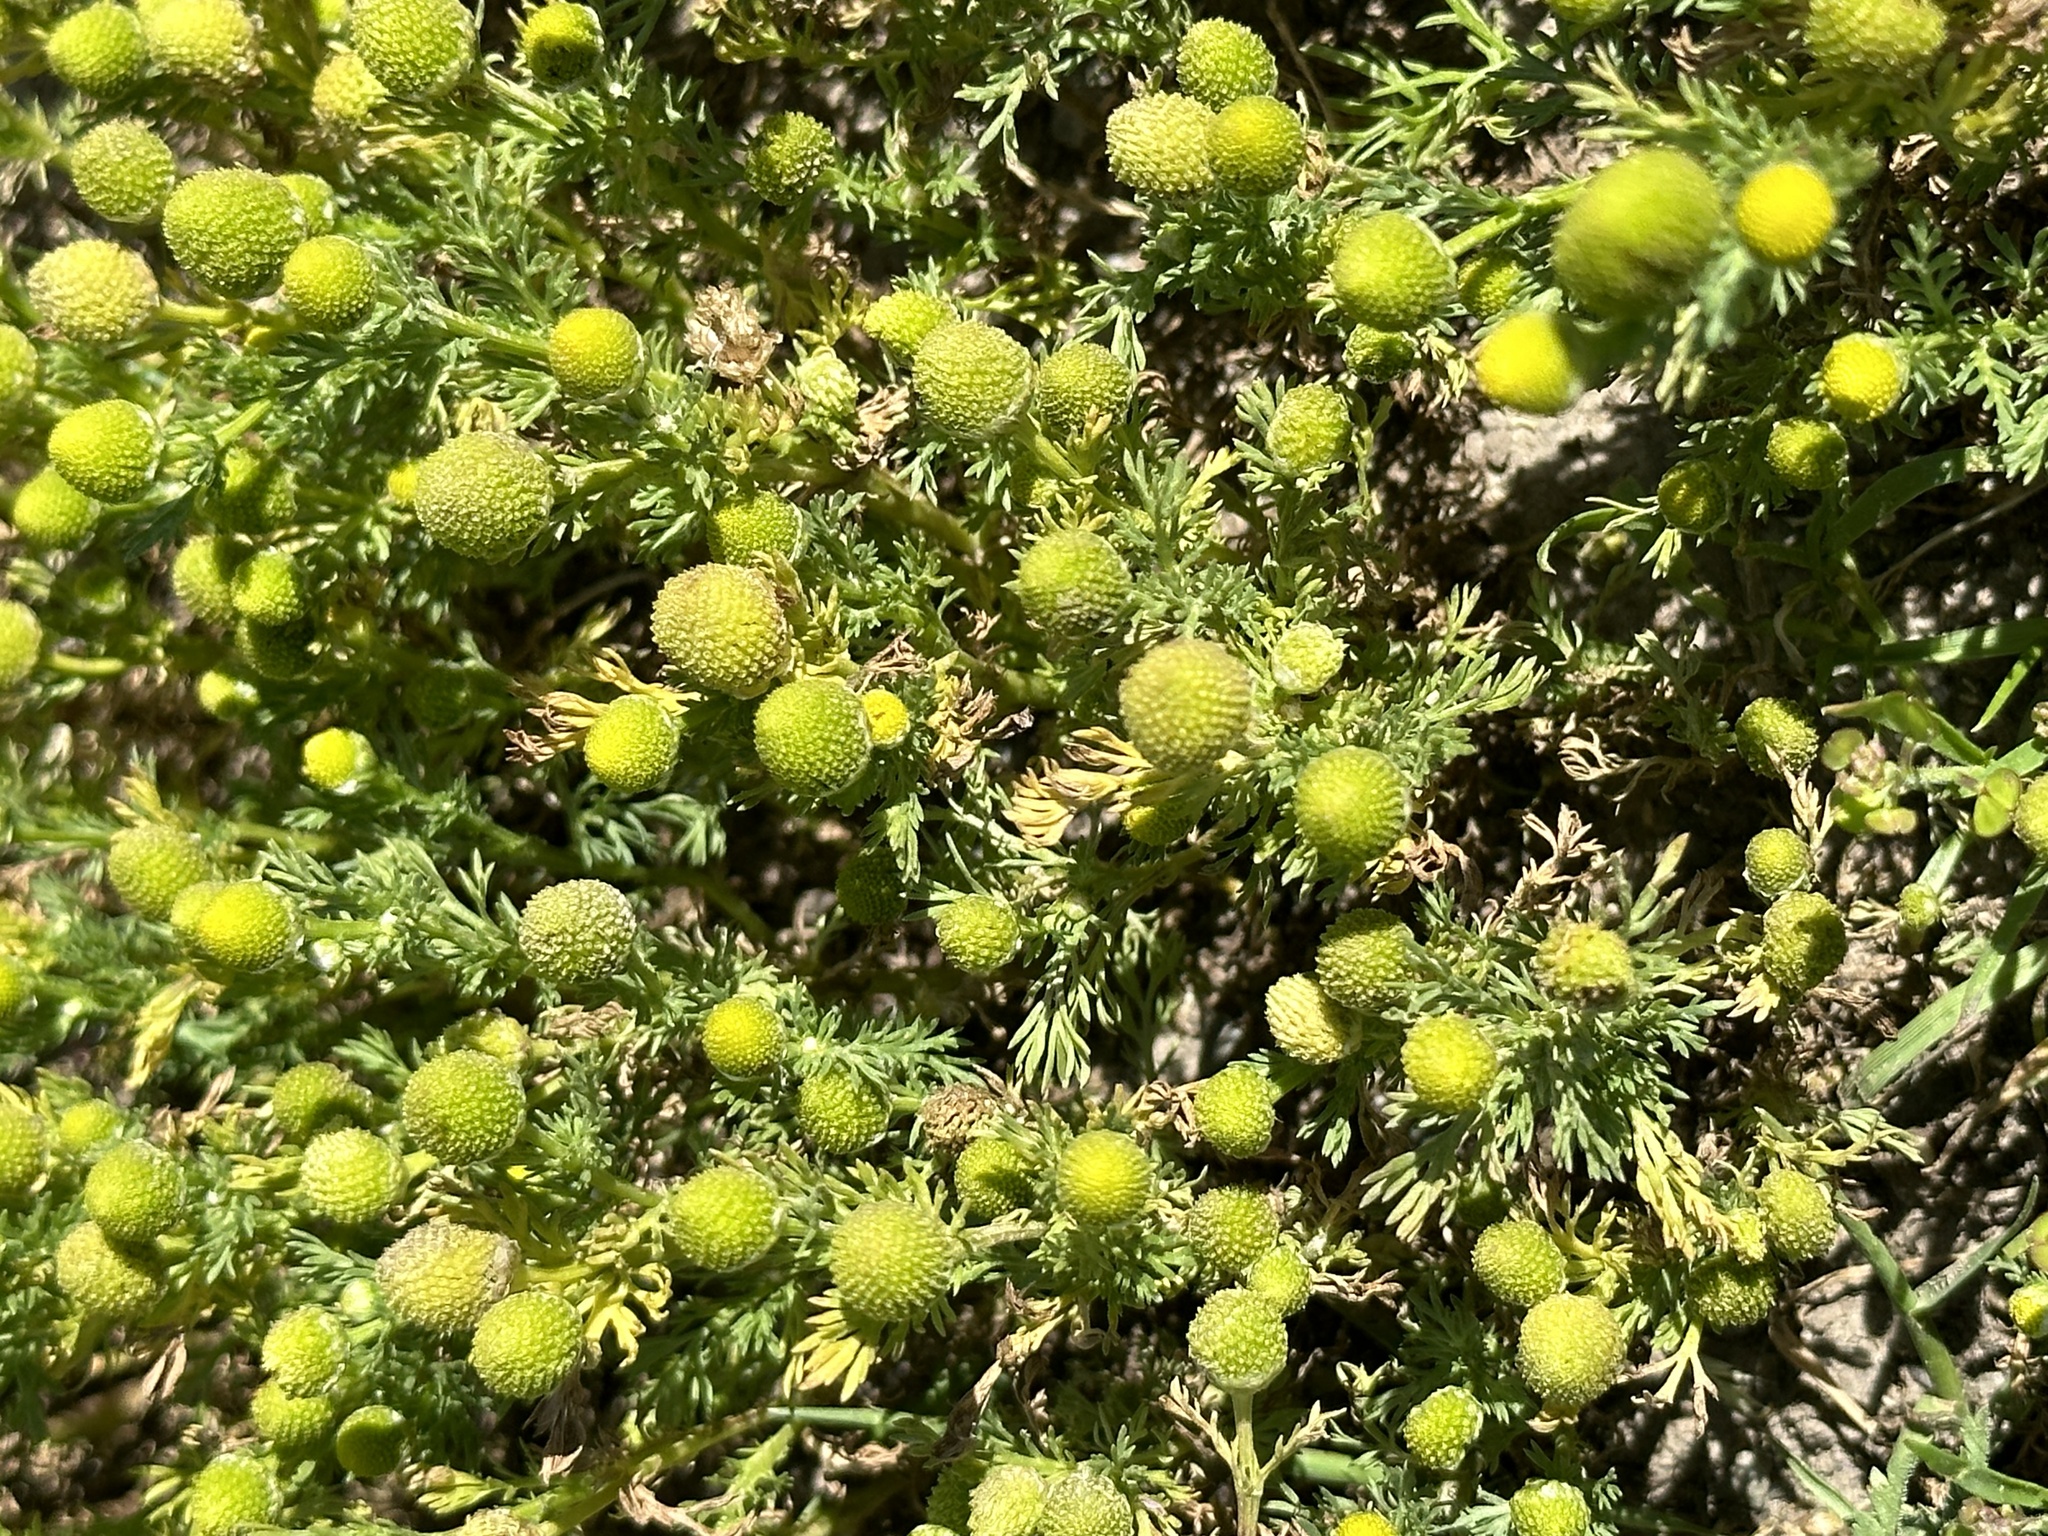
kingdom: Plantae
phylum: Tracheophyta
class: Magnoliopsida
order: Asterales
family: Asteraceae
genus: Matricaria
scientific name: Matricaria discoidea
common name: Disc mayweed
